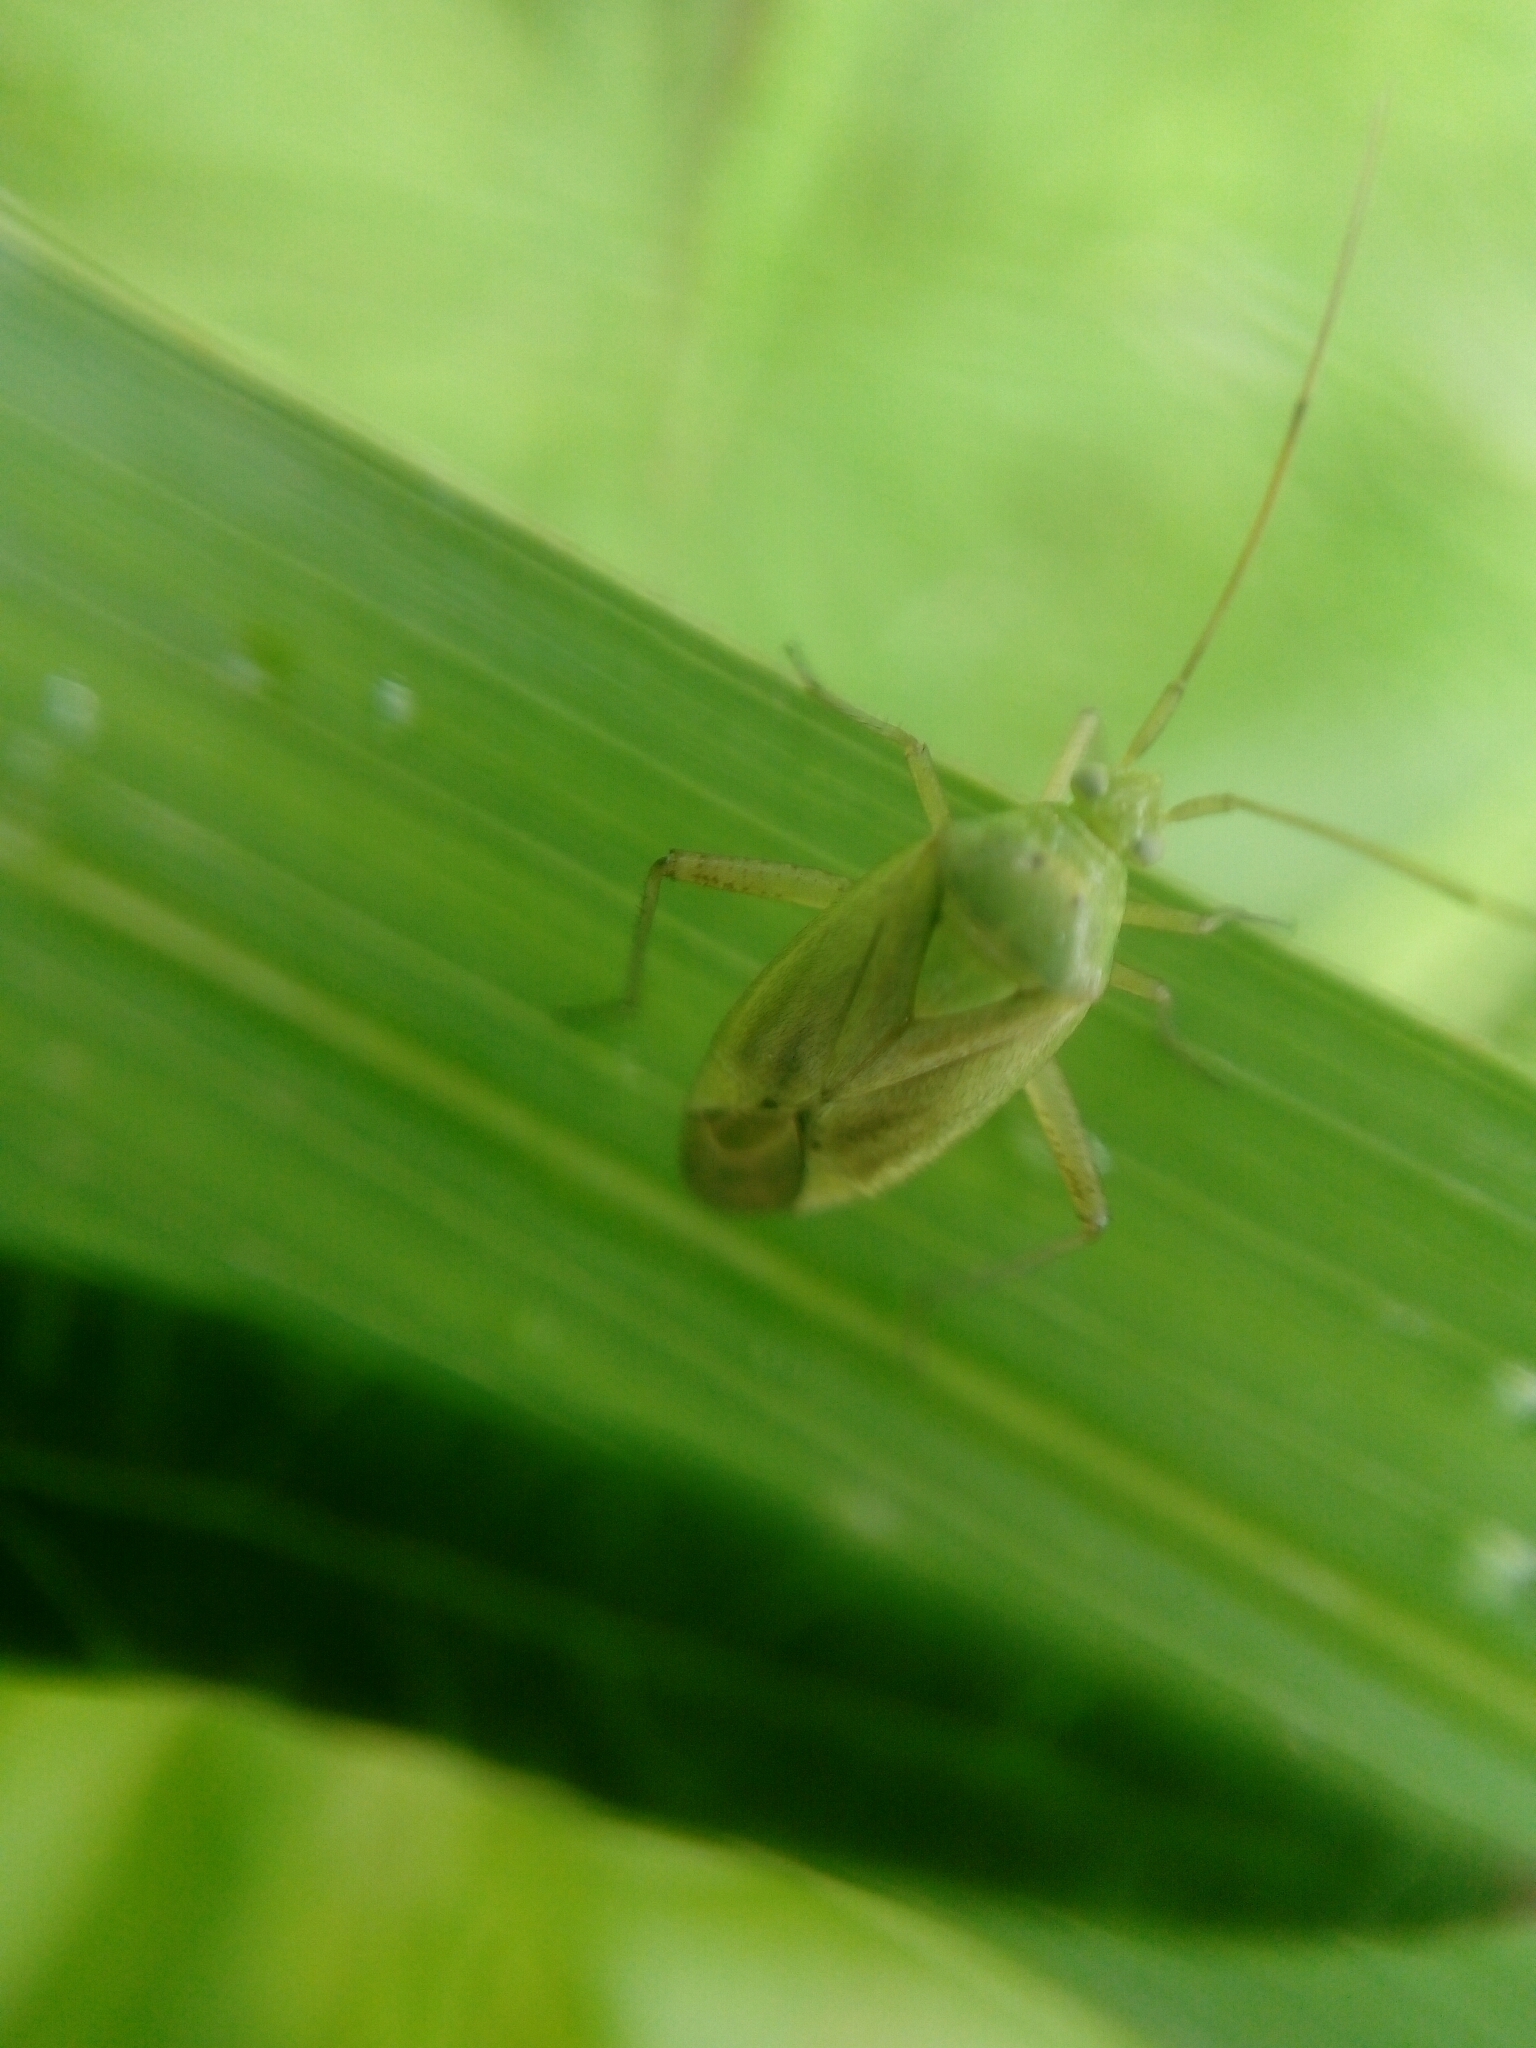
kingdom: Animalia
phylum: Arthropoda
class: Insecta
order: Hemiptera
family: Miridae
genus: Closterotomus
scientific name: Closterotomus norvegicus
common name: Plant bug
